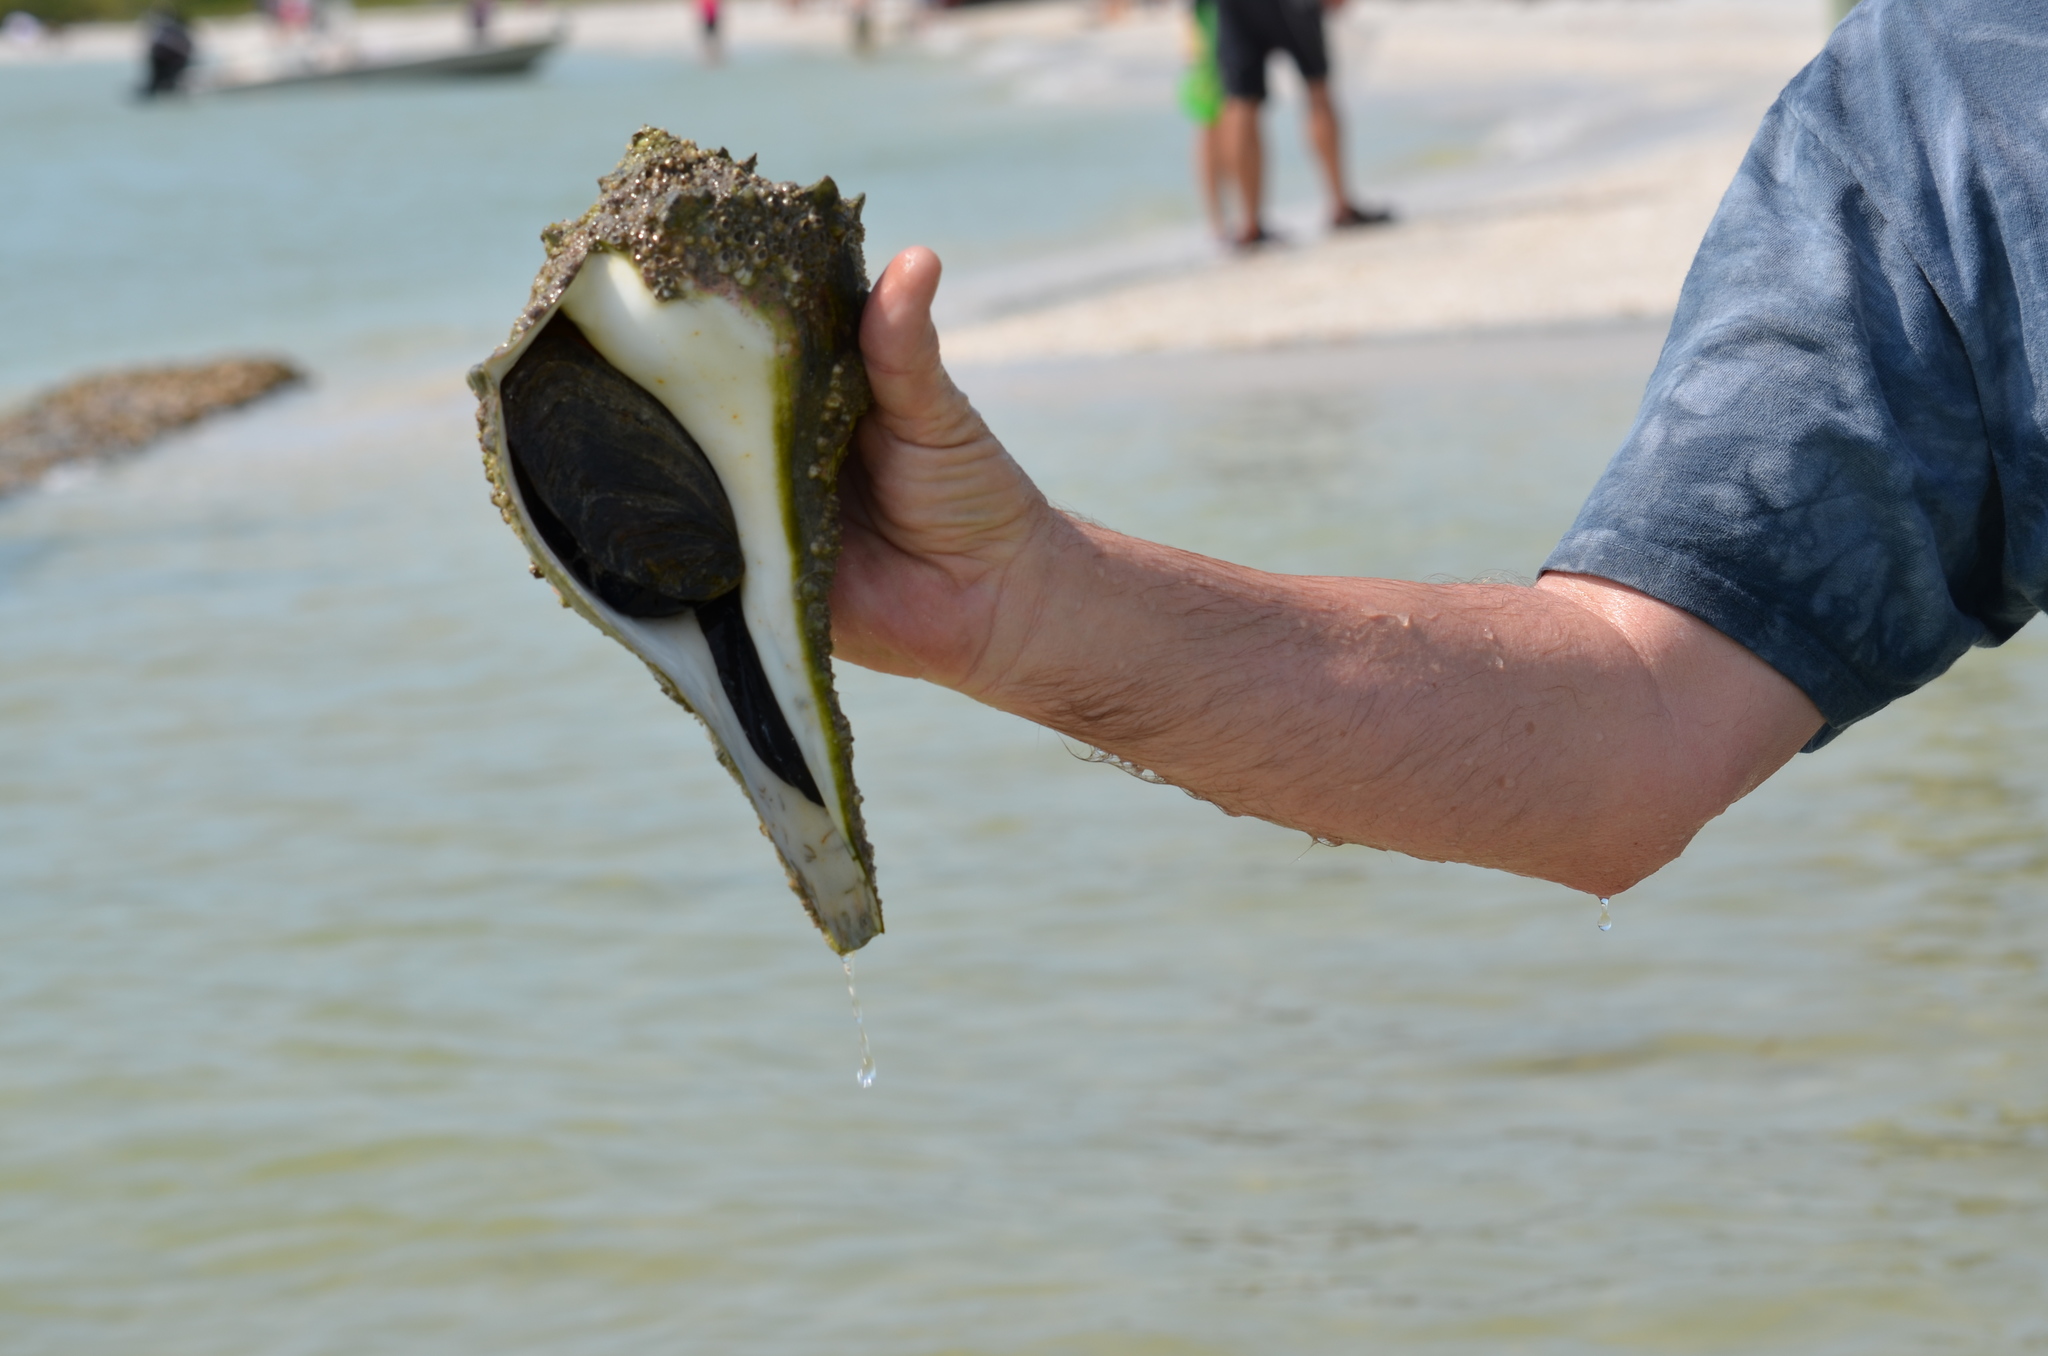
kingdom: Animalia
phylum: Mollusca
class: Gastropoda
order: Neogastropoda
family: Busyconidae
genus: Sinistrofulgur
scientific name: Sinistrofulgur sinistrum
